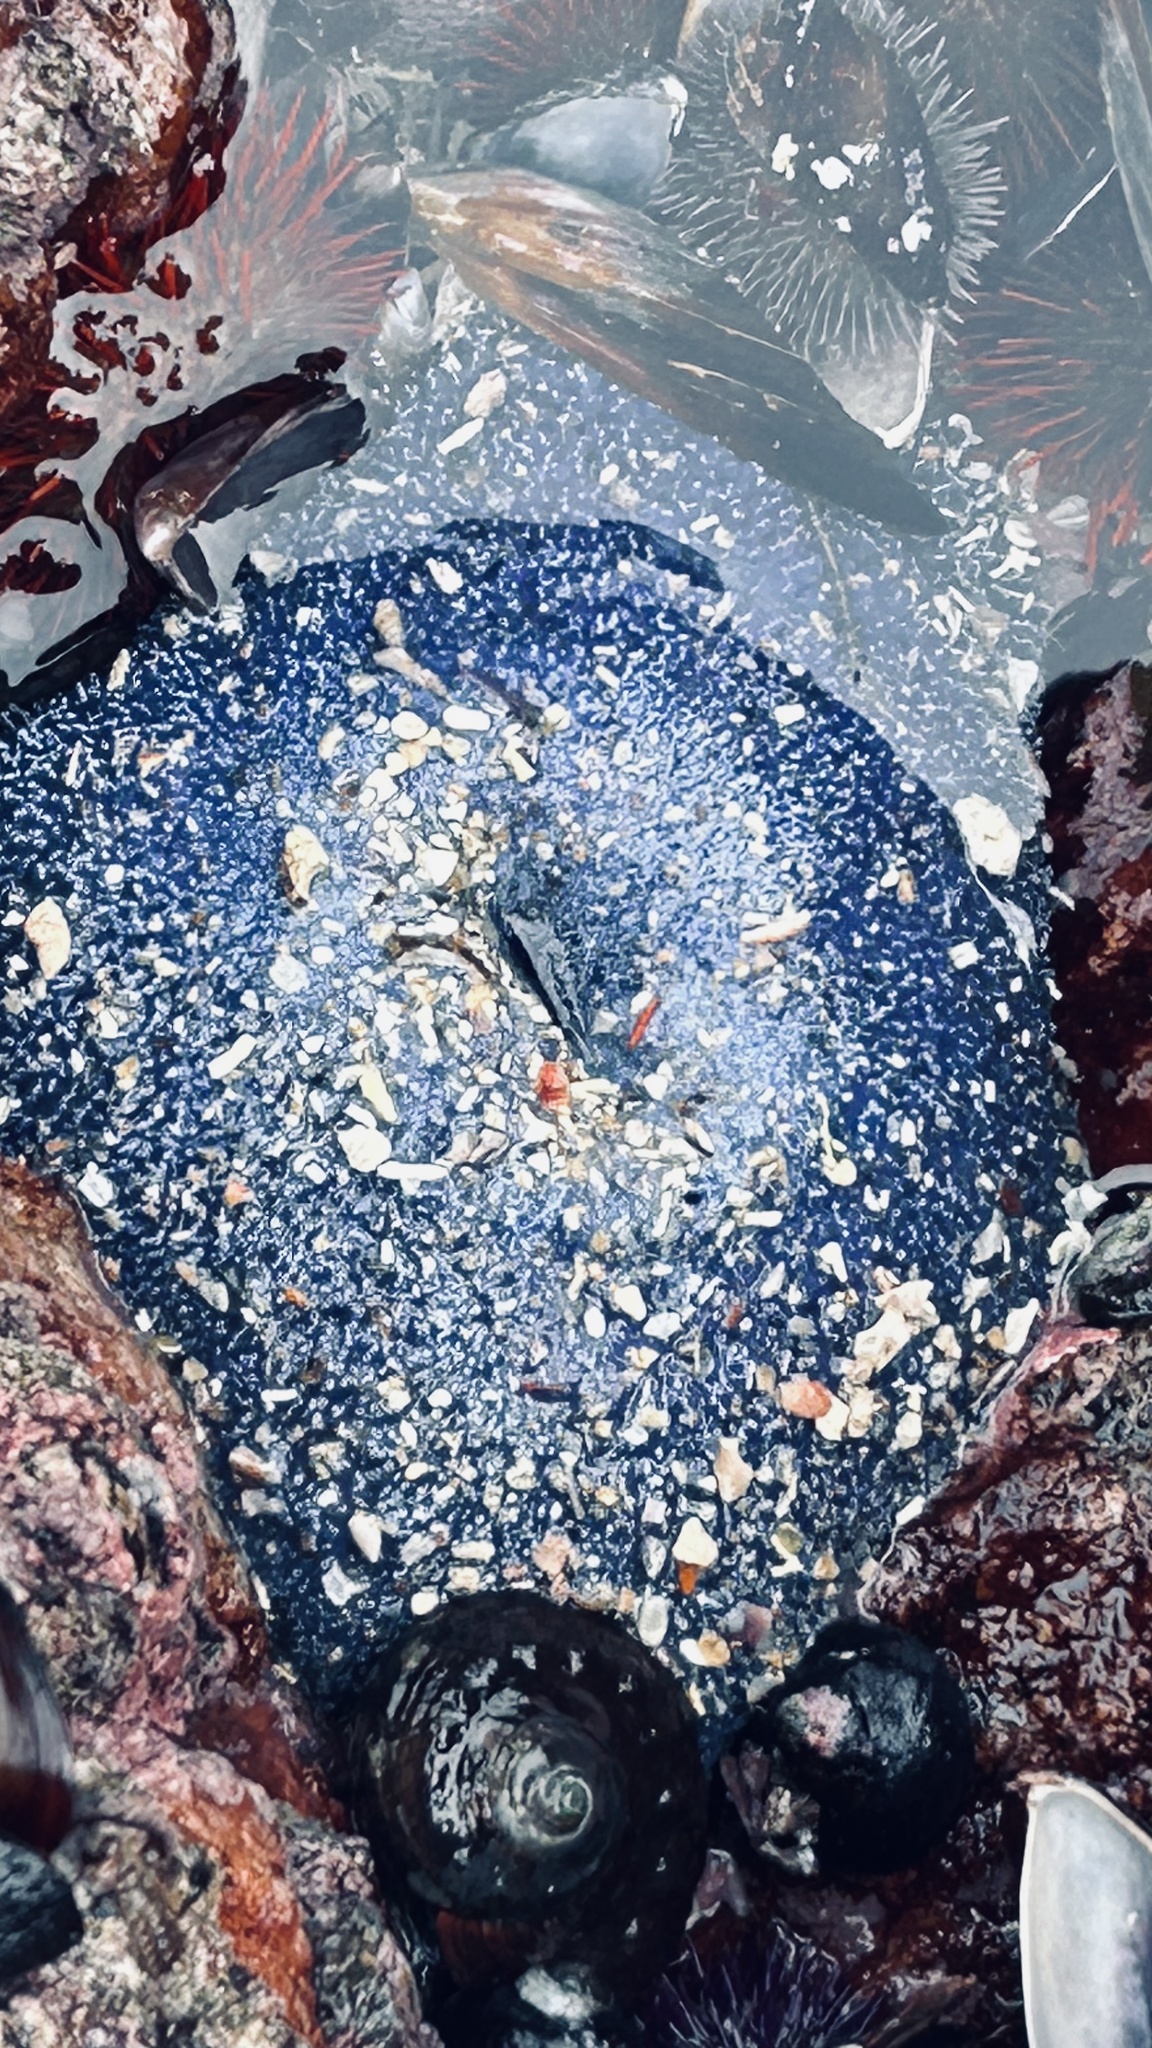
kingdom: Animalia
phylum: Cnidaria
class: Anthozoa
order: Actiniaria
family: Actiniidae
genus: Bunodactis
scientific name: Bunodactis reynaudi
